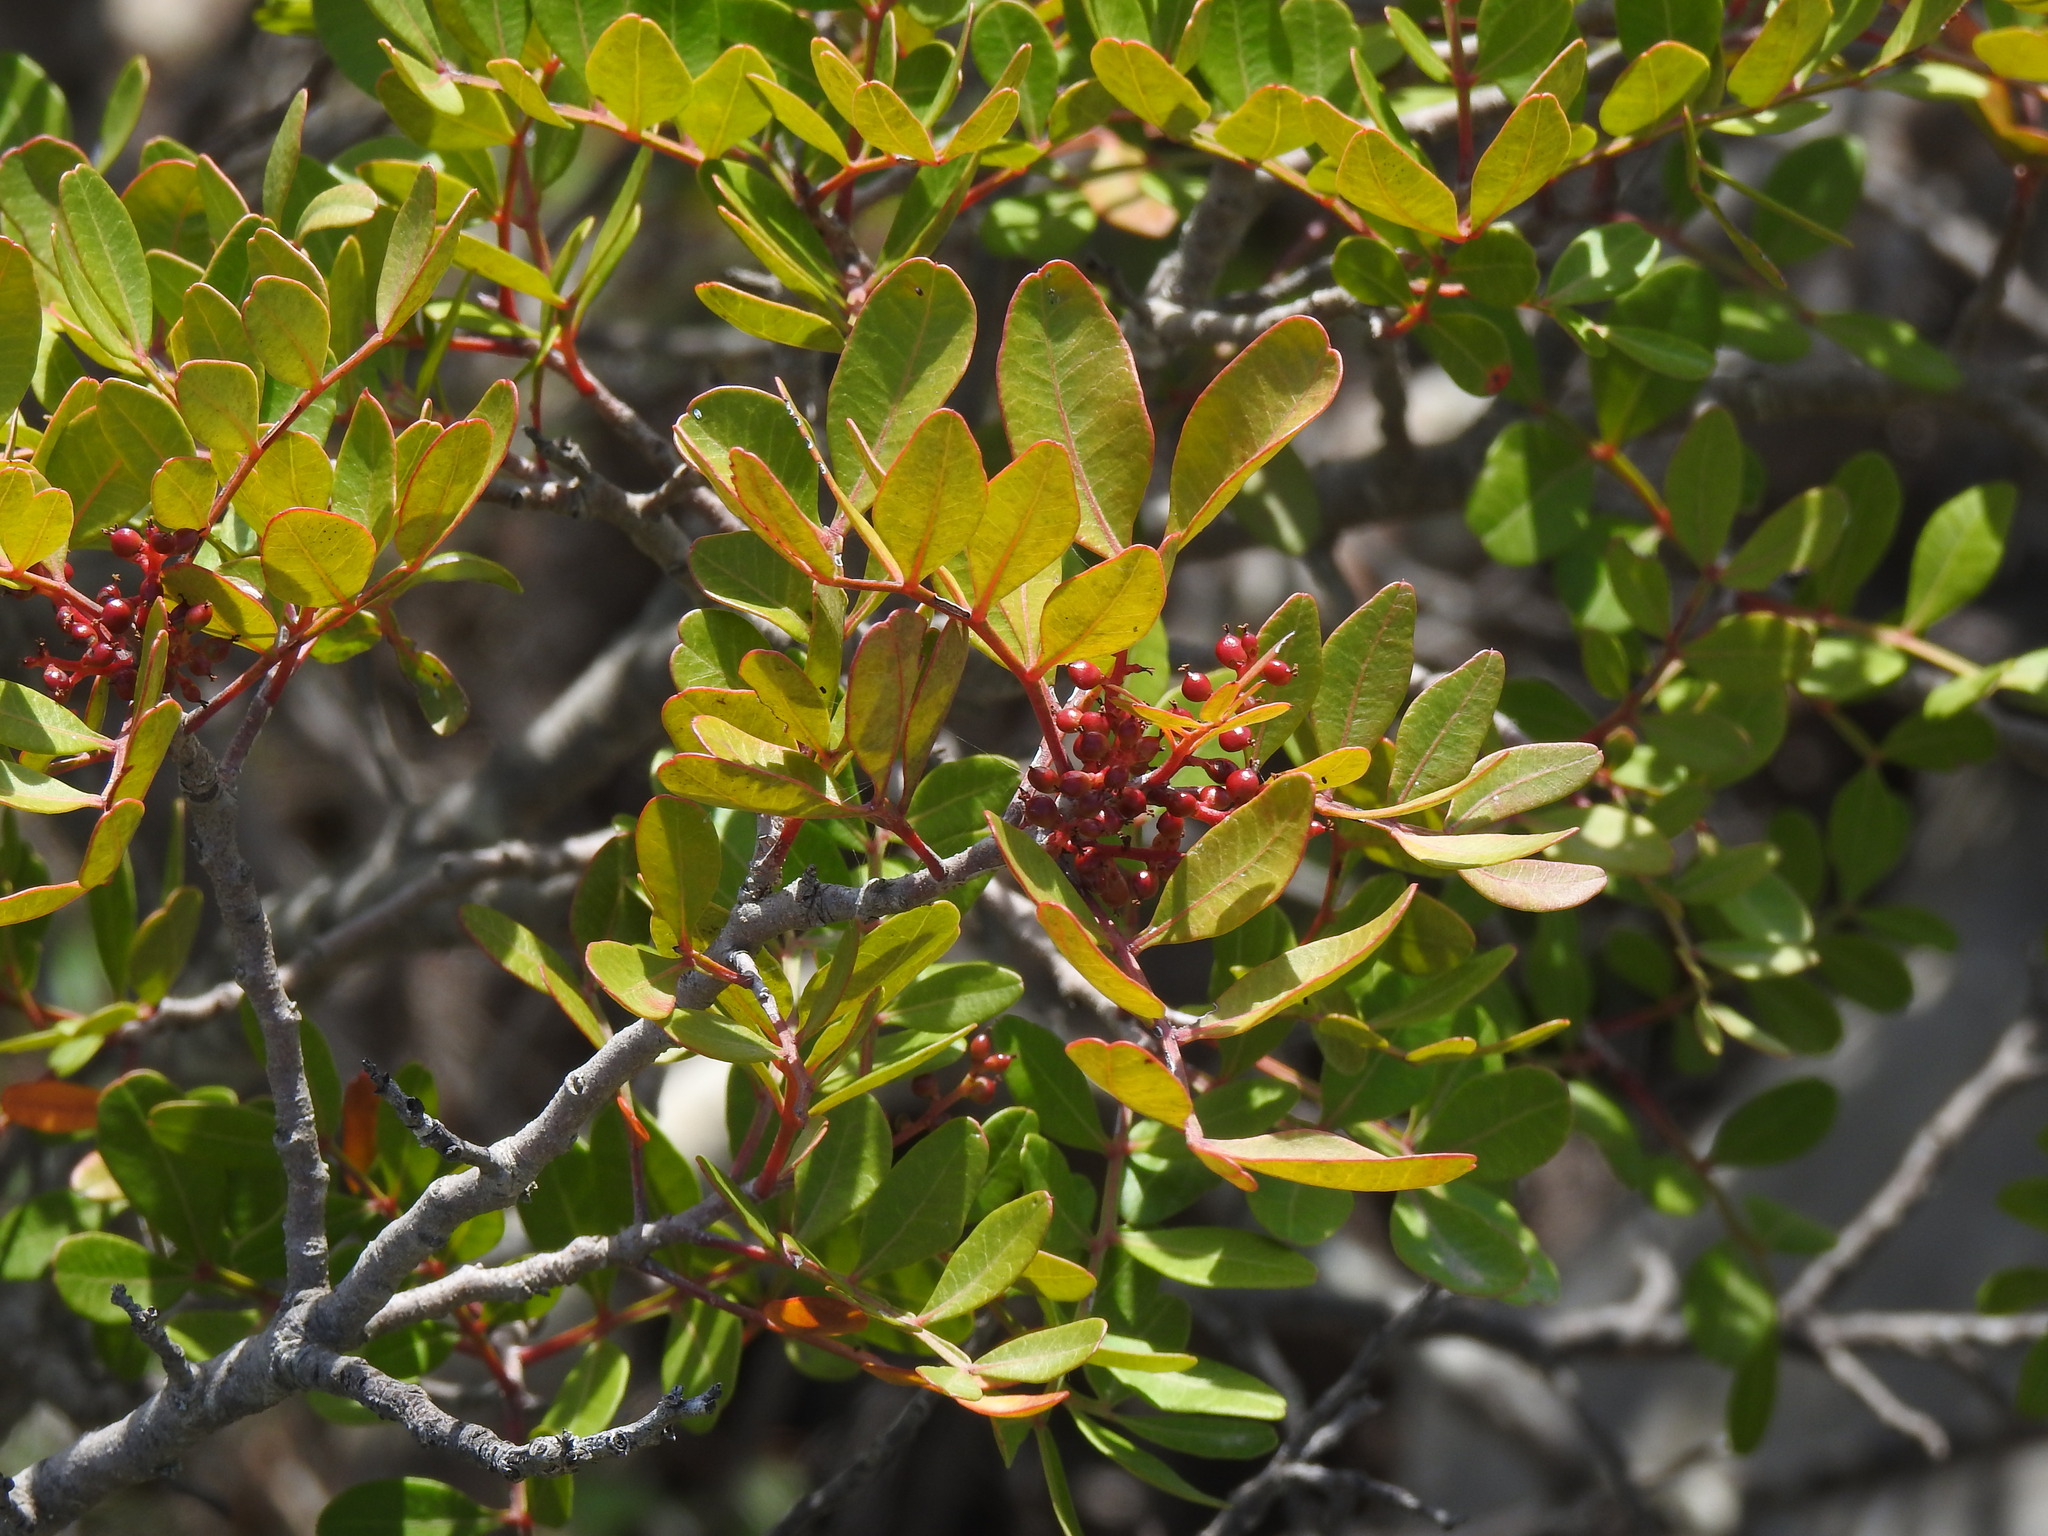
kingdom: Plantae
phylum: Tracheophyta
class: Magnoliopsida
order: Sapindales
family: Anacardiaceae
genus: Pistacia
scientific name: Pistacia lentiscus
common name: Lentisk
